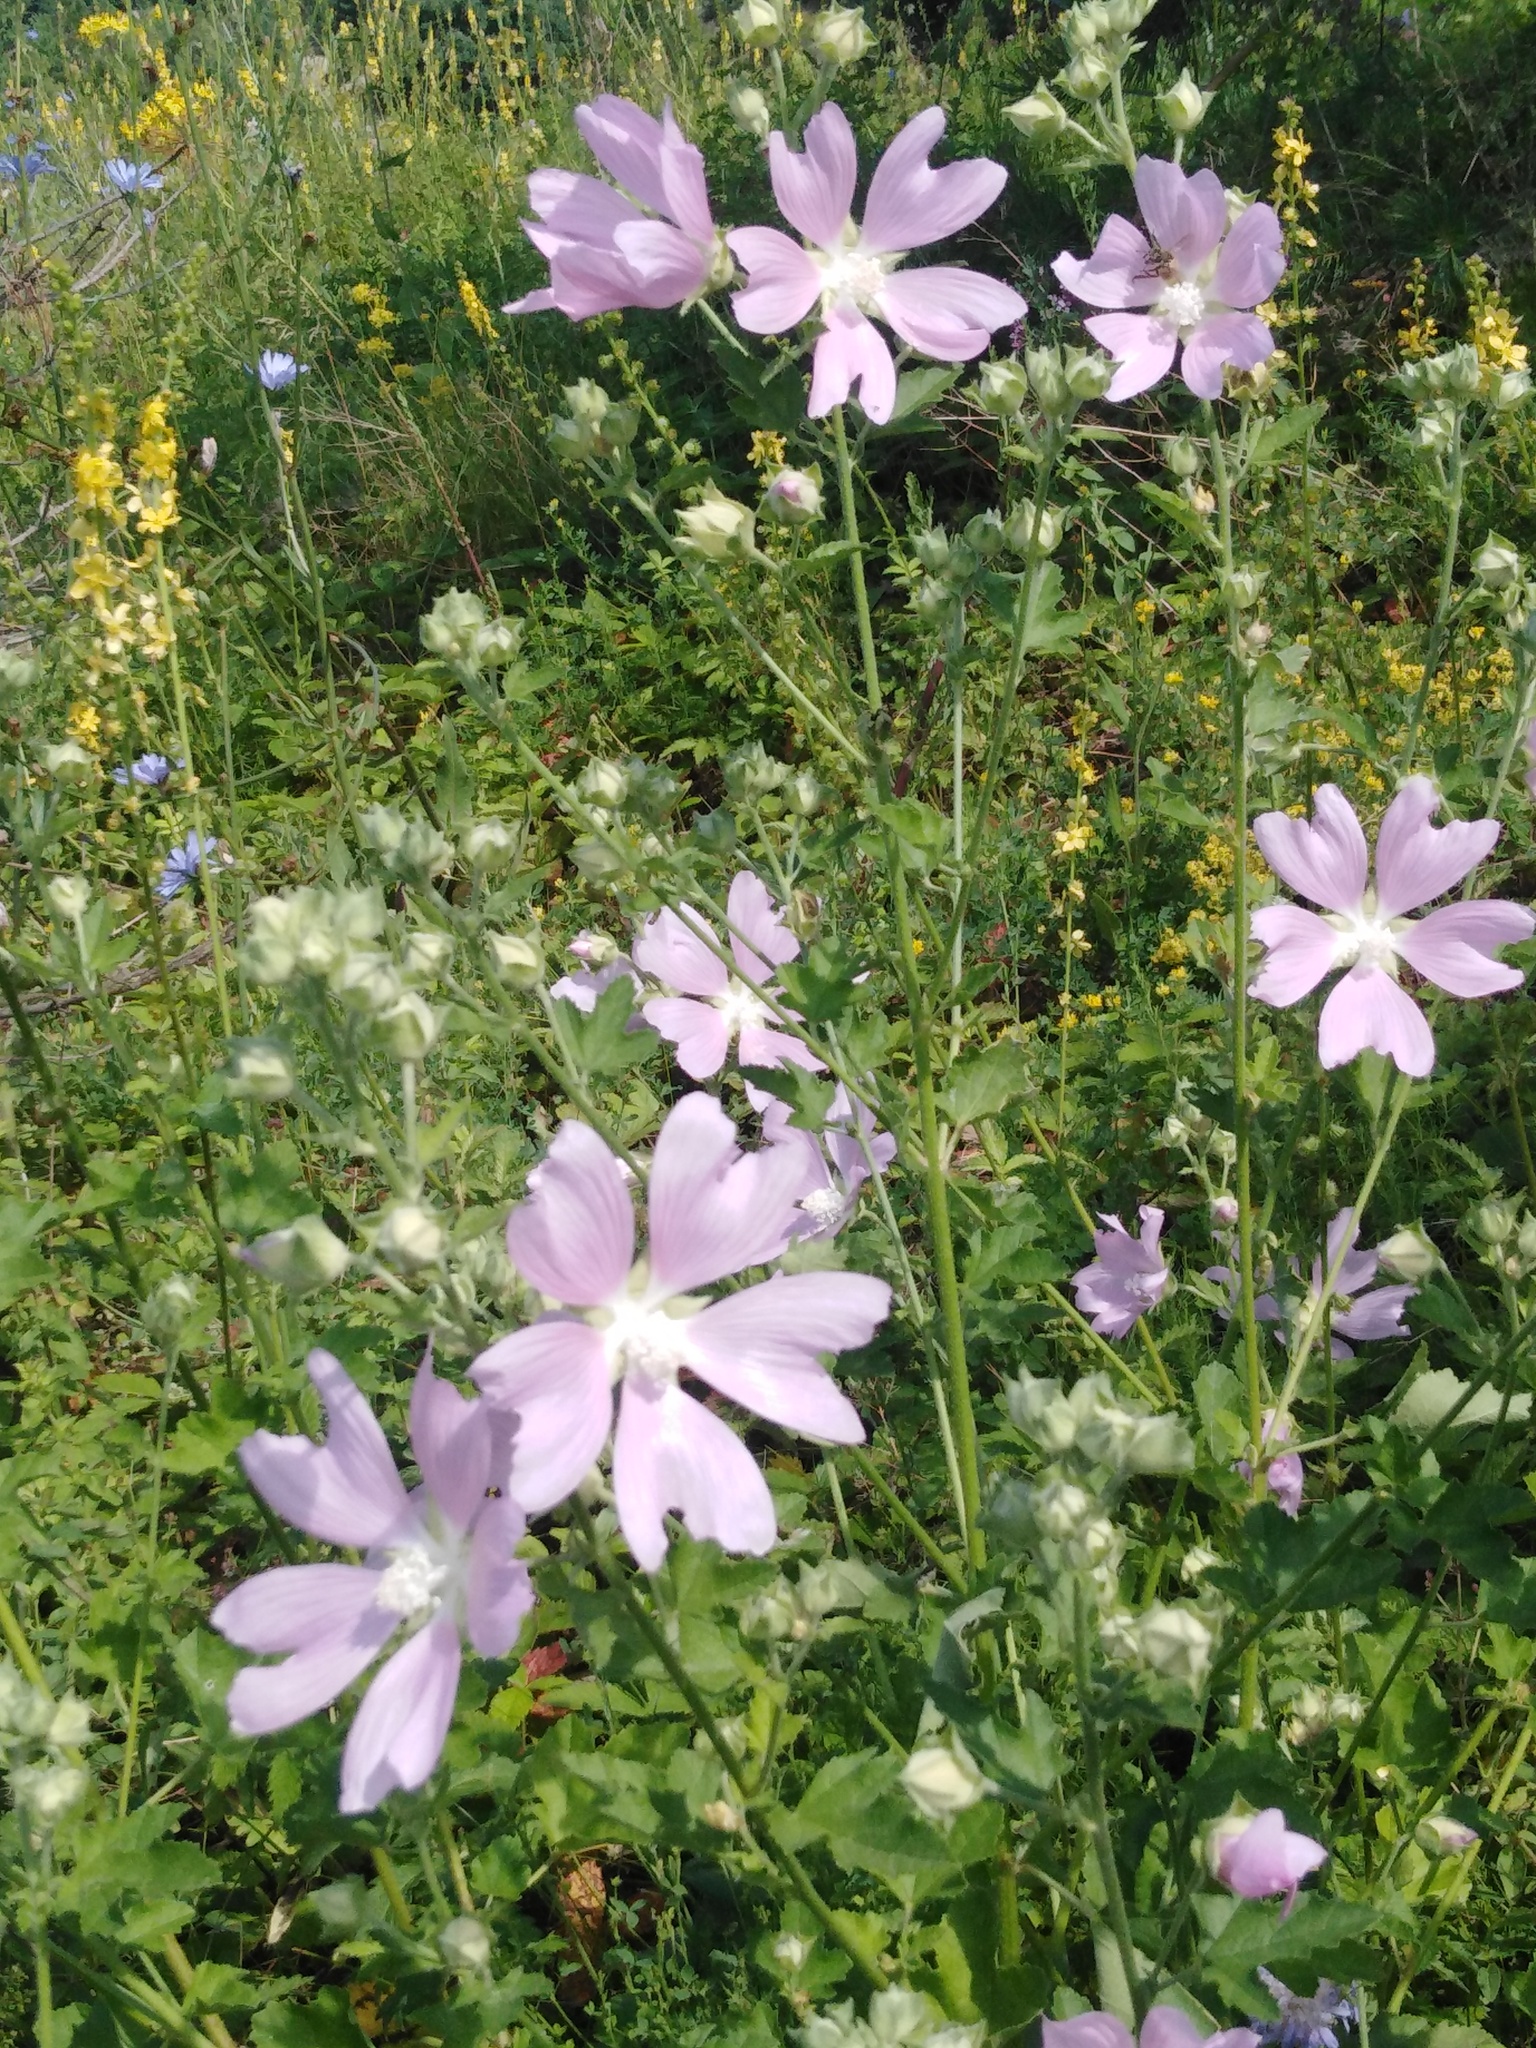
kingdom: Plantae
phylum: Tracheophyta
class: Magnoliopsida
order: Malvales
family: Malvaceae
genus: Malva
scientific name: Malva thuringiaca
